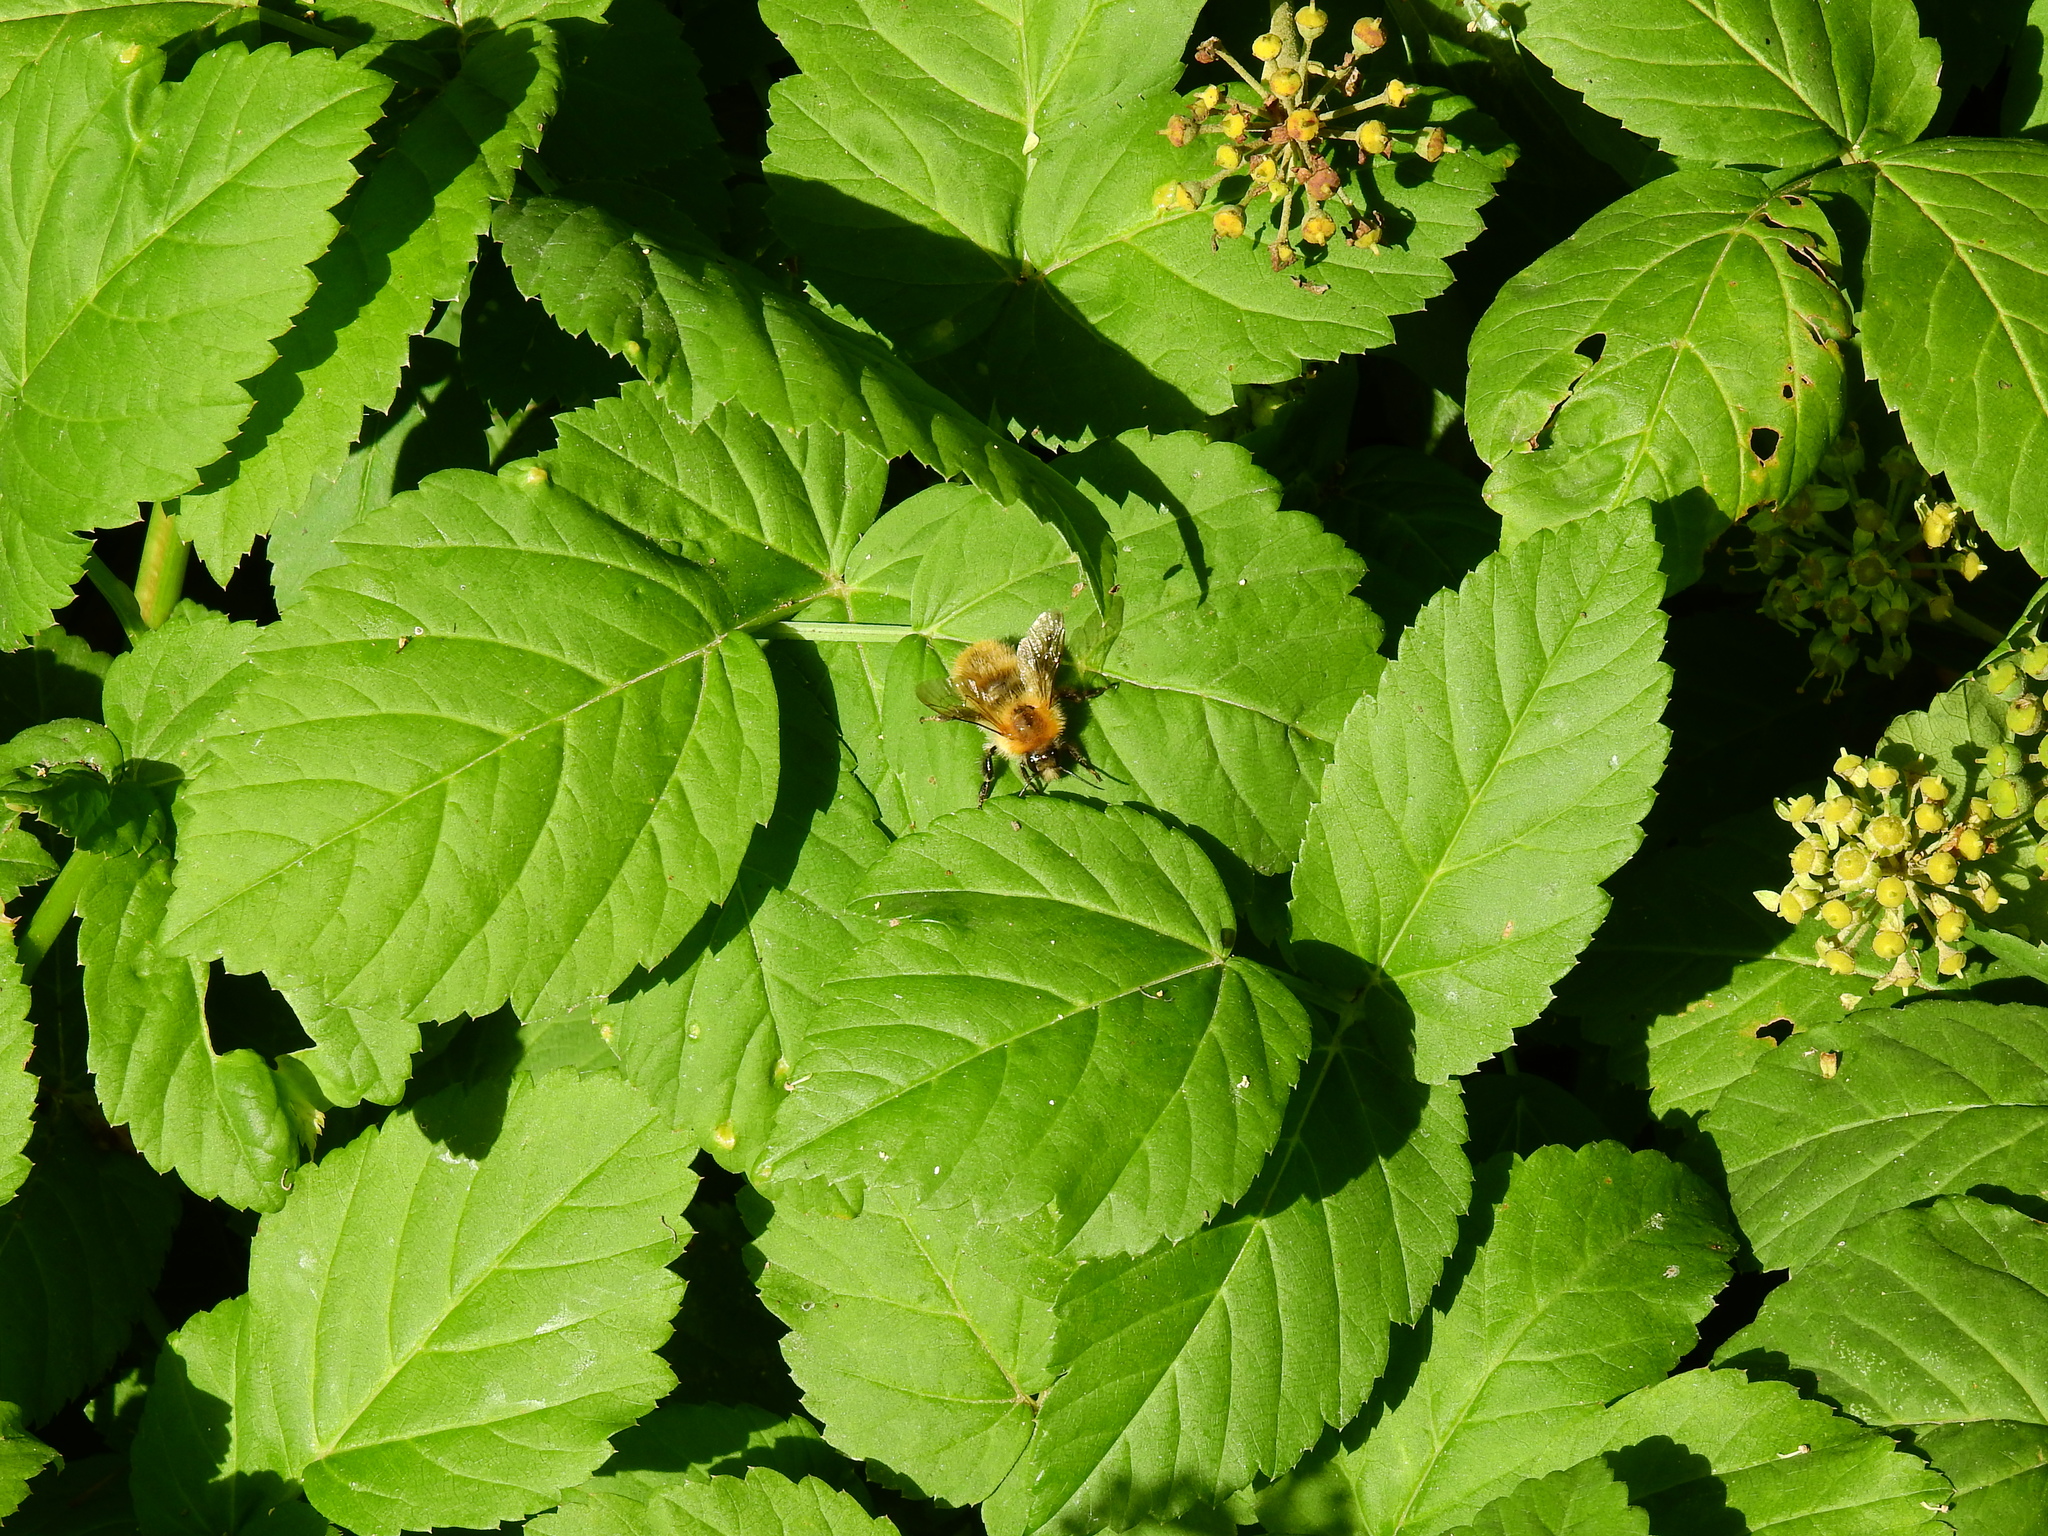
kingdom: Animalia
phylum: Arthropoda
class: Insecta
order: Hymenoptera
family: Apidae
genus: Bombus
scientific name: Bombus pascuorum
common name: Common carder bee
